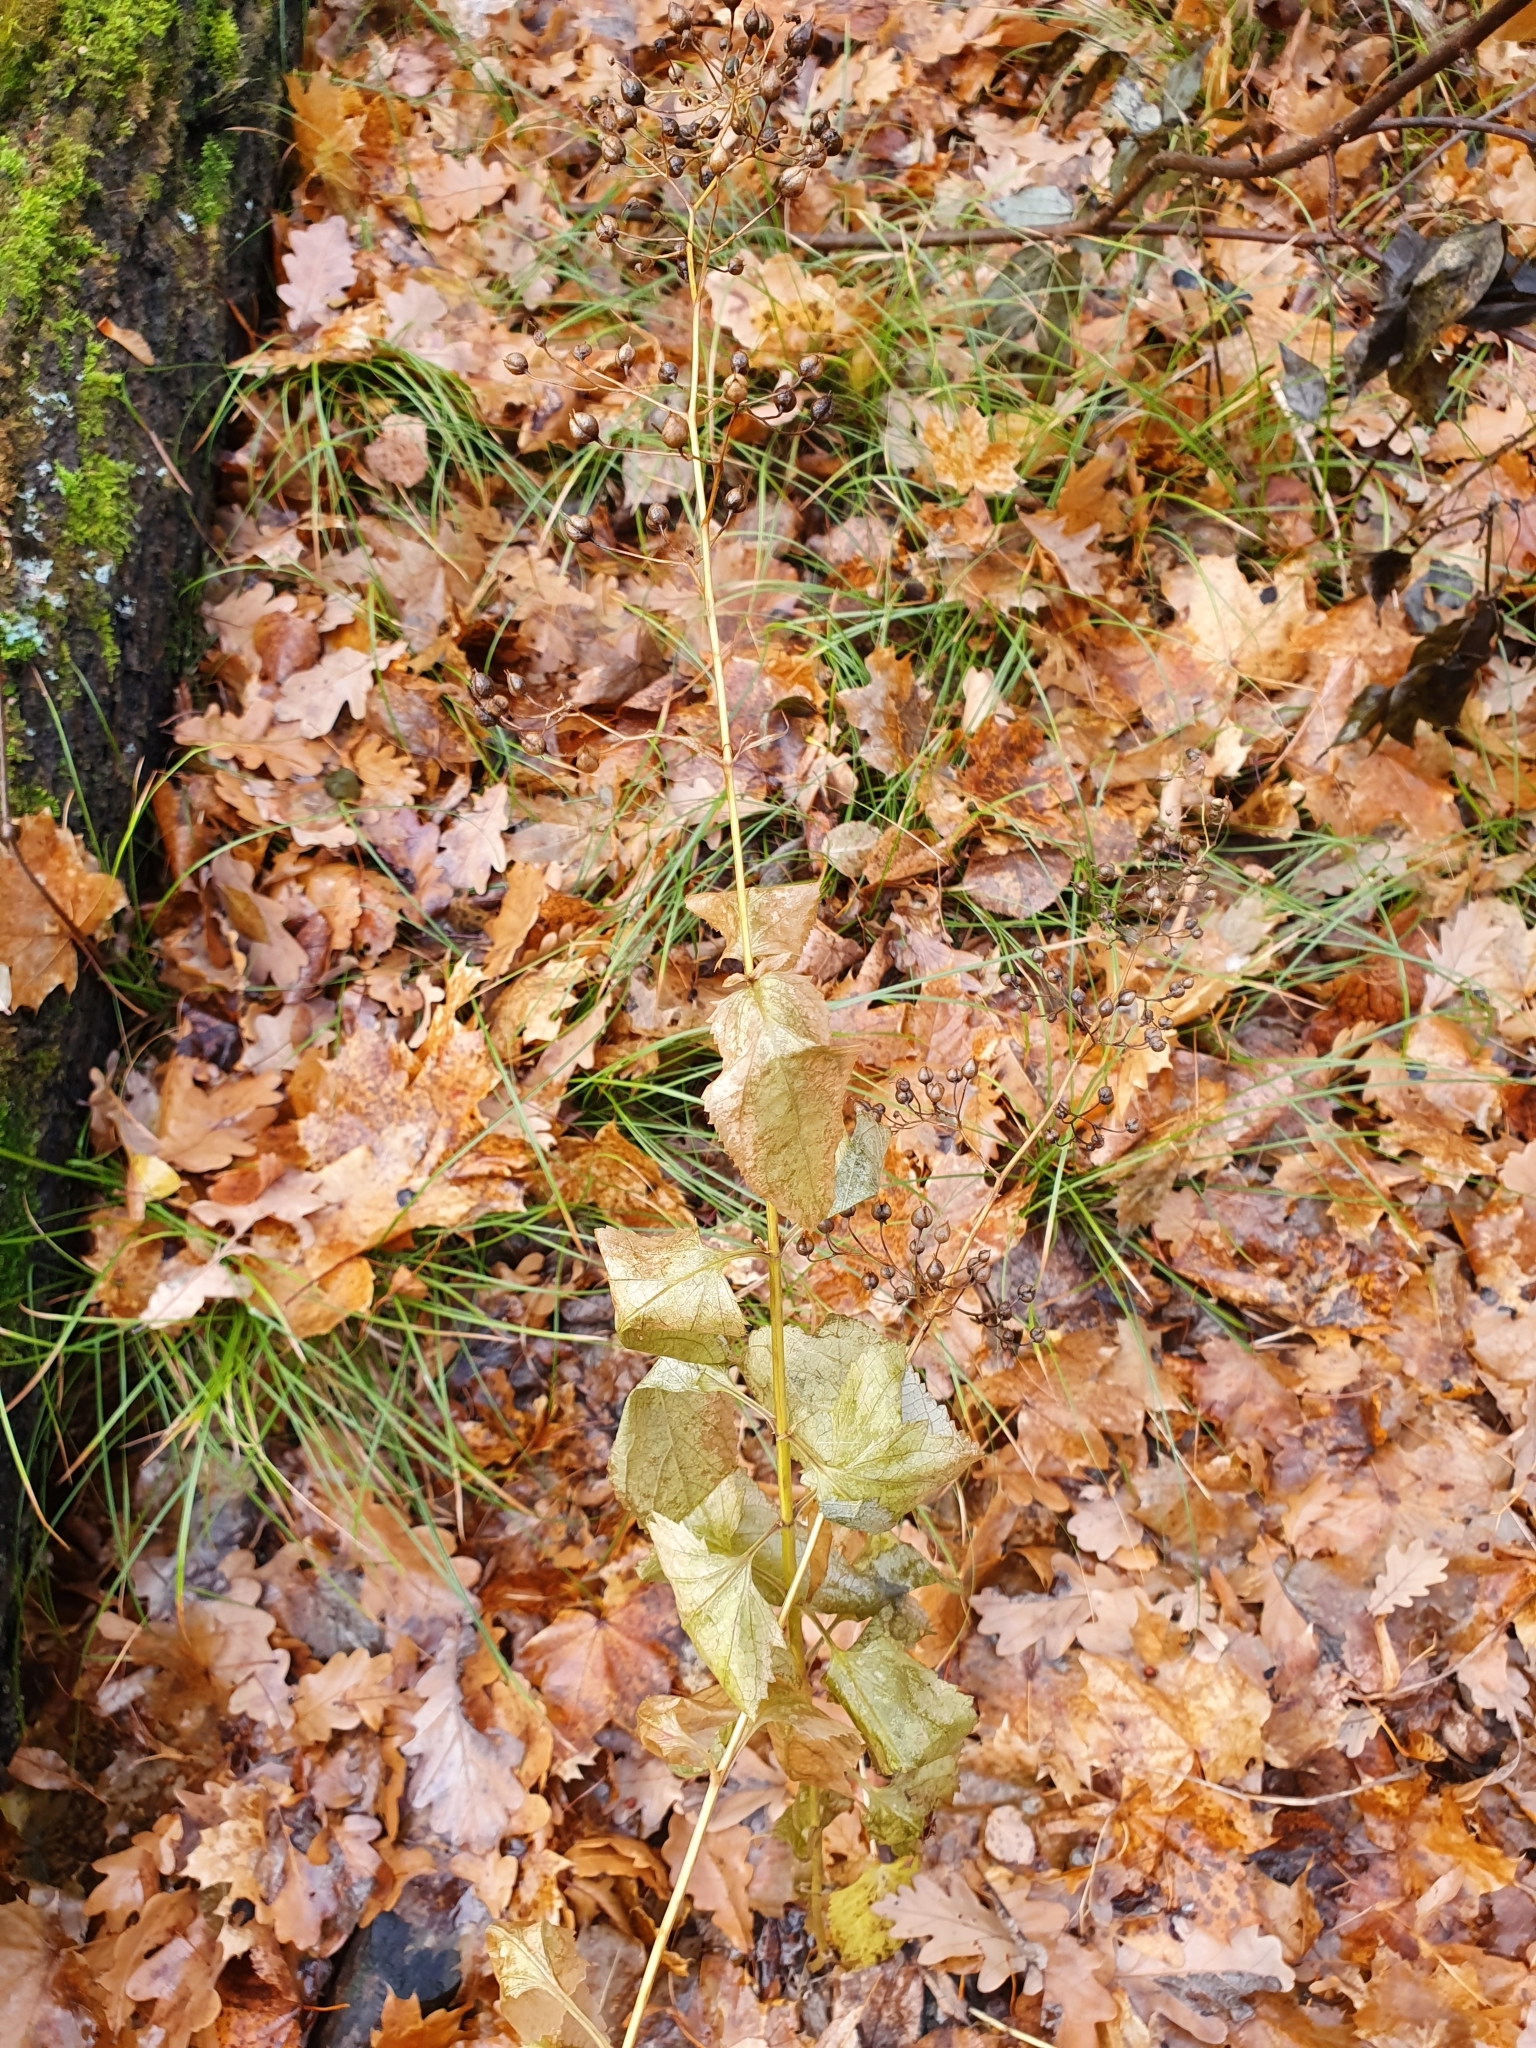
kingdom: Plantae
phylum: Tracheophyta
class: Magnoliopsida
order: Lamiales
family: Scrophulariaceae
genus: Scrophularia
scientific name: Scrophularia nodosa
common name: Common figwort
